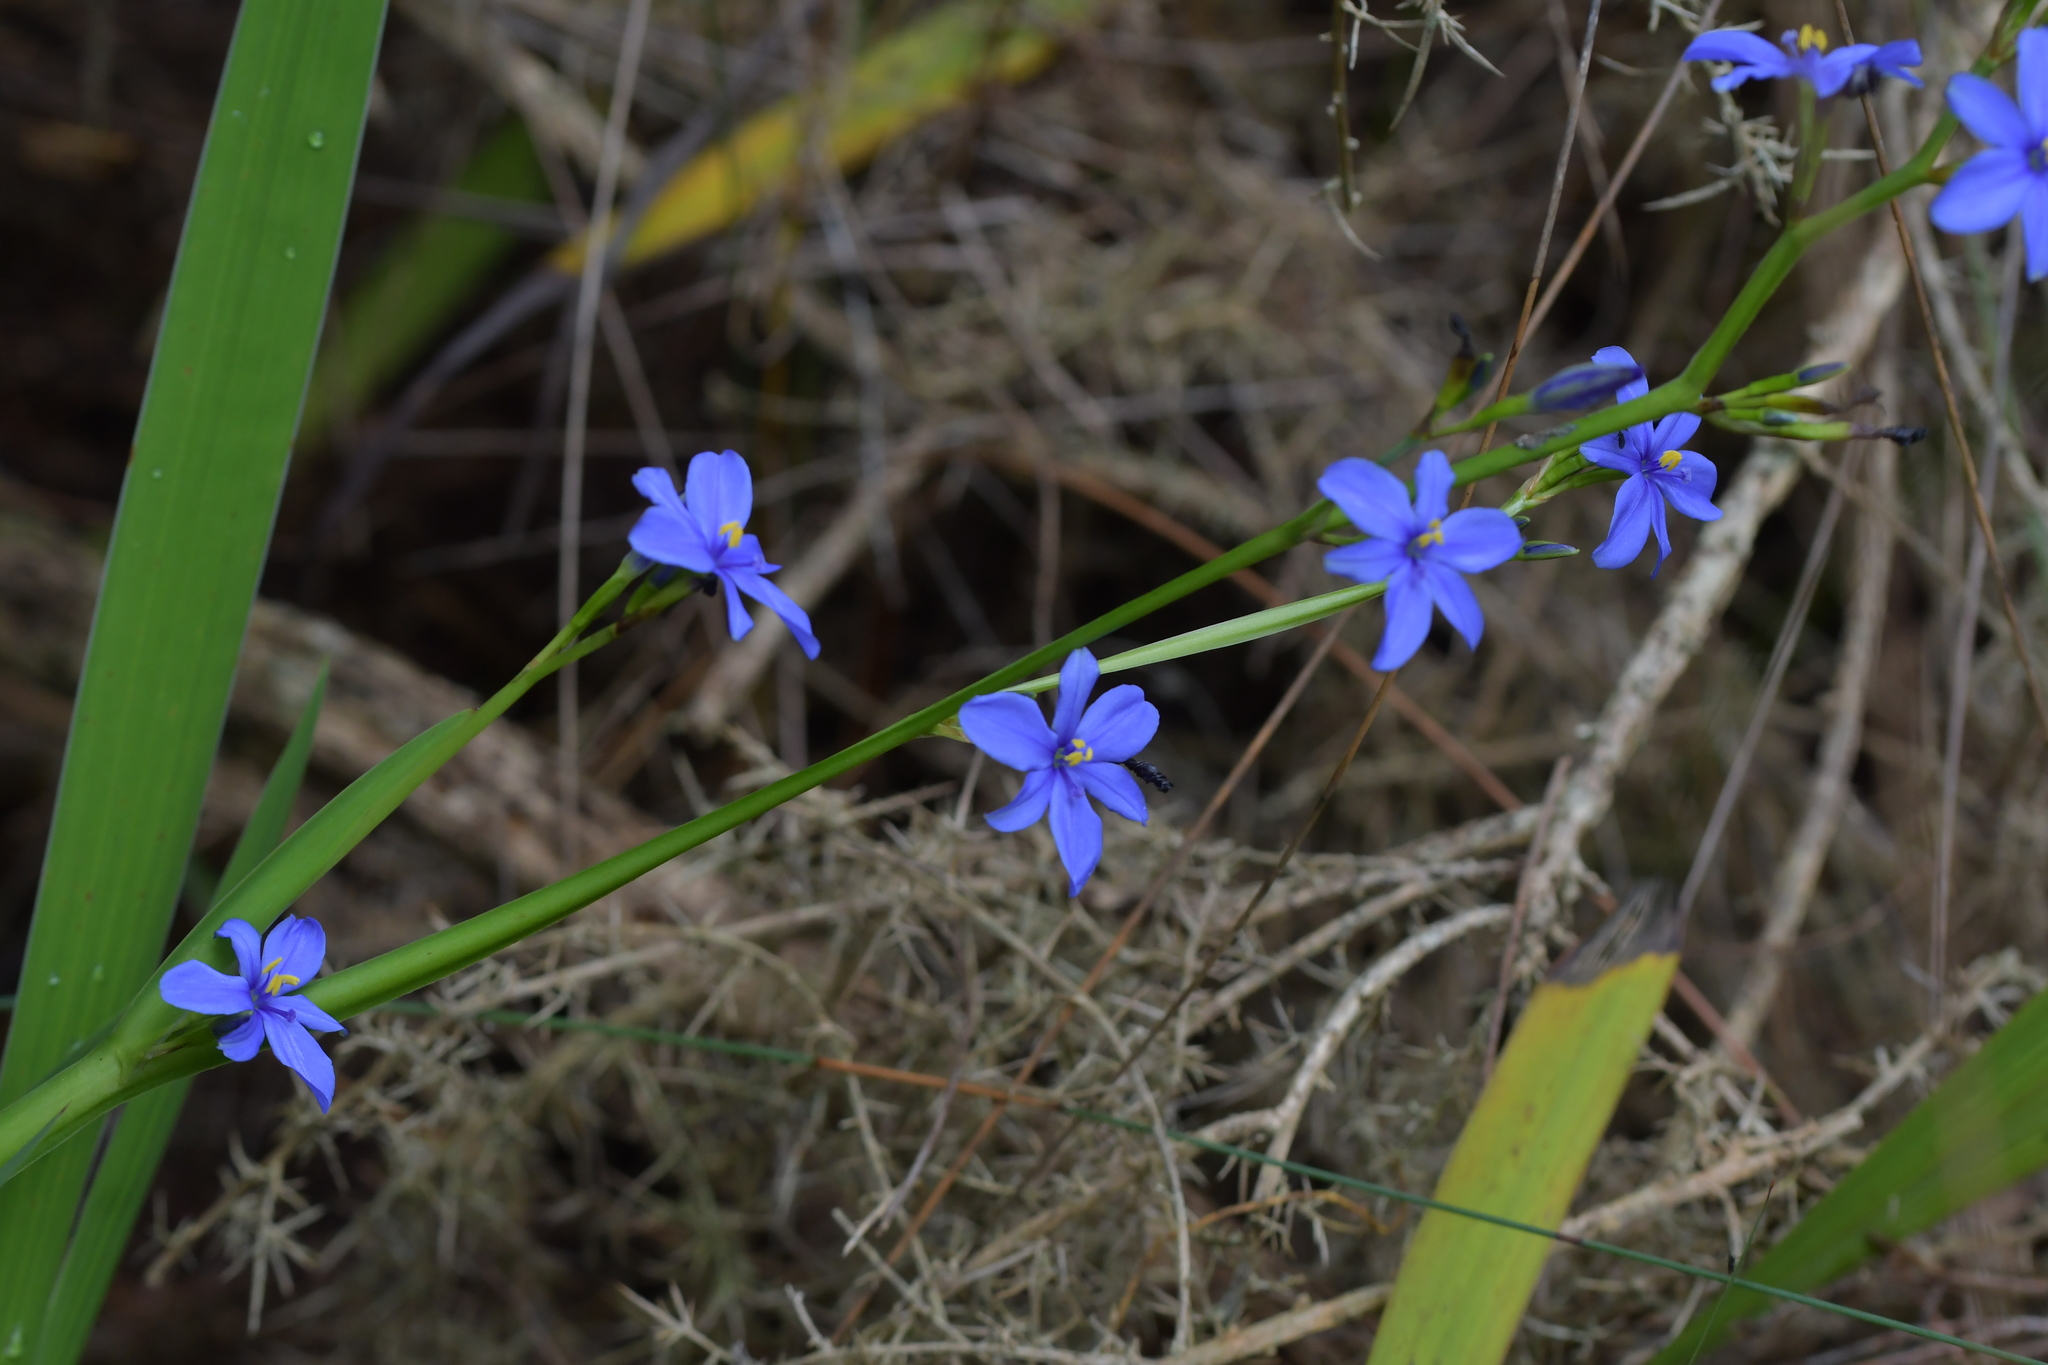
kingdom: Plantae
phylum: Tracheophyta
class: Liliopsida
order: Asparagales
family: Iridaceae
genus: Aristea
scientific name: Aristea ecklonii
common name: Blue corn-lily
